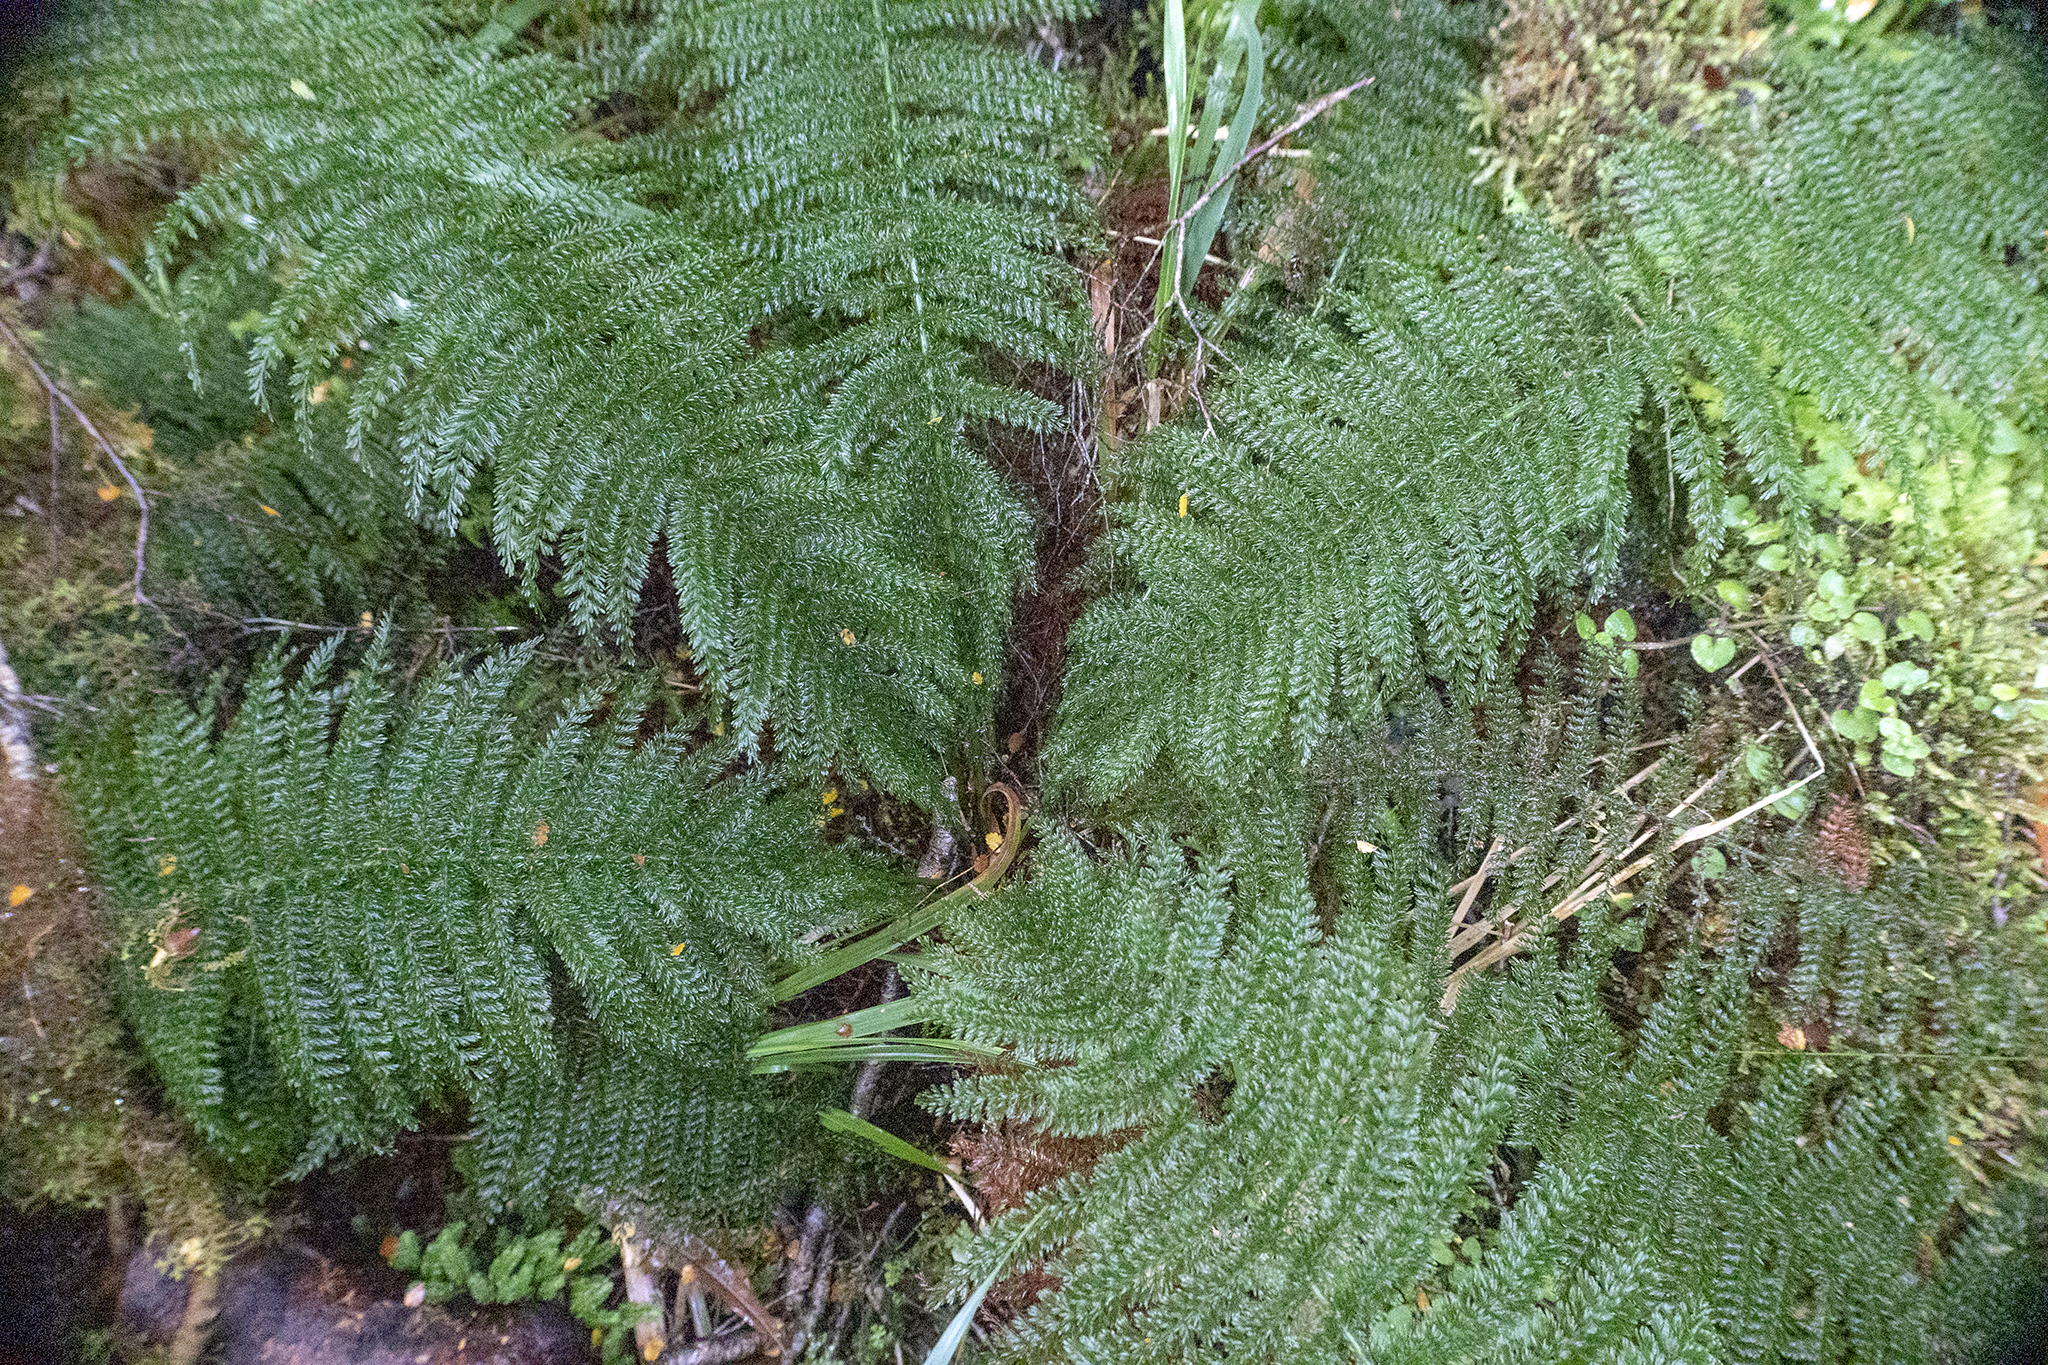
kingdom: Plantae
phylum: Tracheophyta
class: Polypodiopsida
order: Osmundales
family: Osmundaceae
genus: Leptopteris
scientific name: Leptopteris superba
